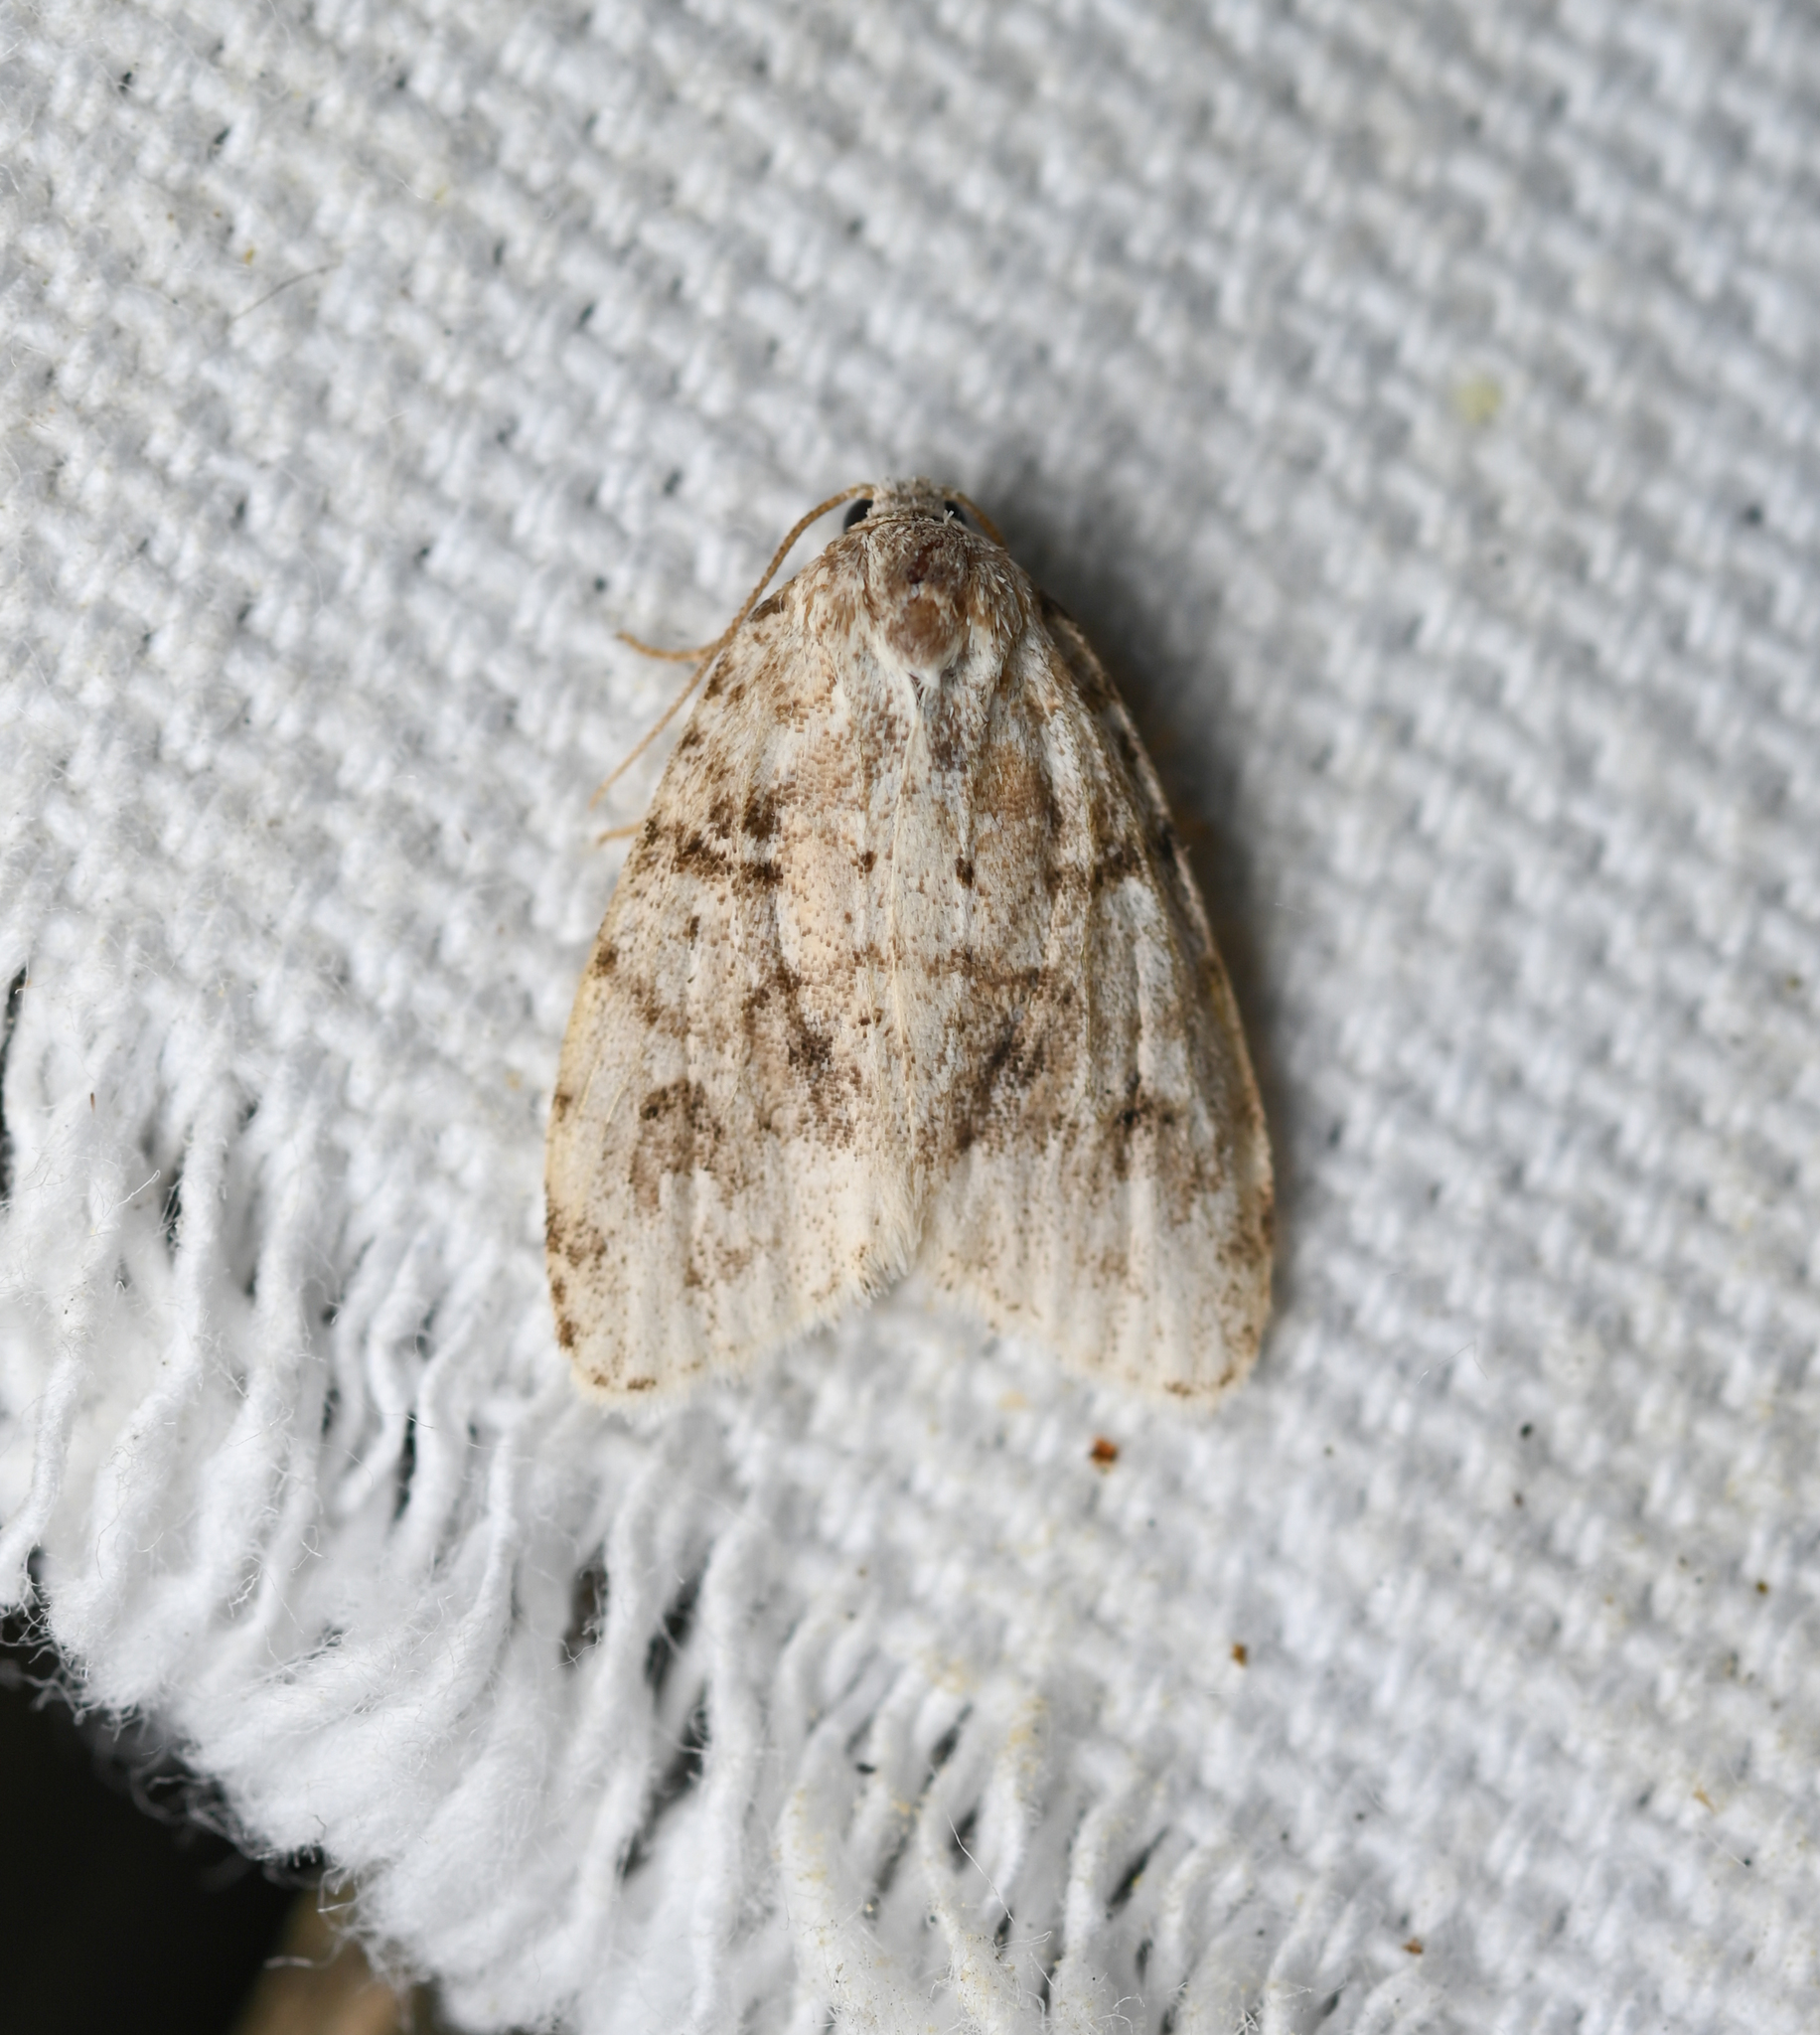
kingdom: Animalia
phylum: Arthropoda
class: Insecta
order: Lepidoptera
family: Erebidae
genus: Clemensia
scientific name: Clemensia albata
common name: Little white lichen moth
